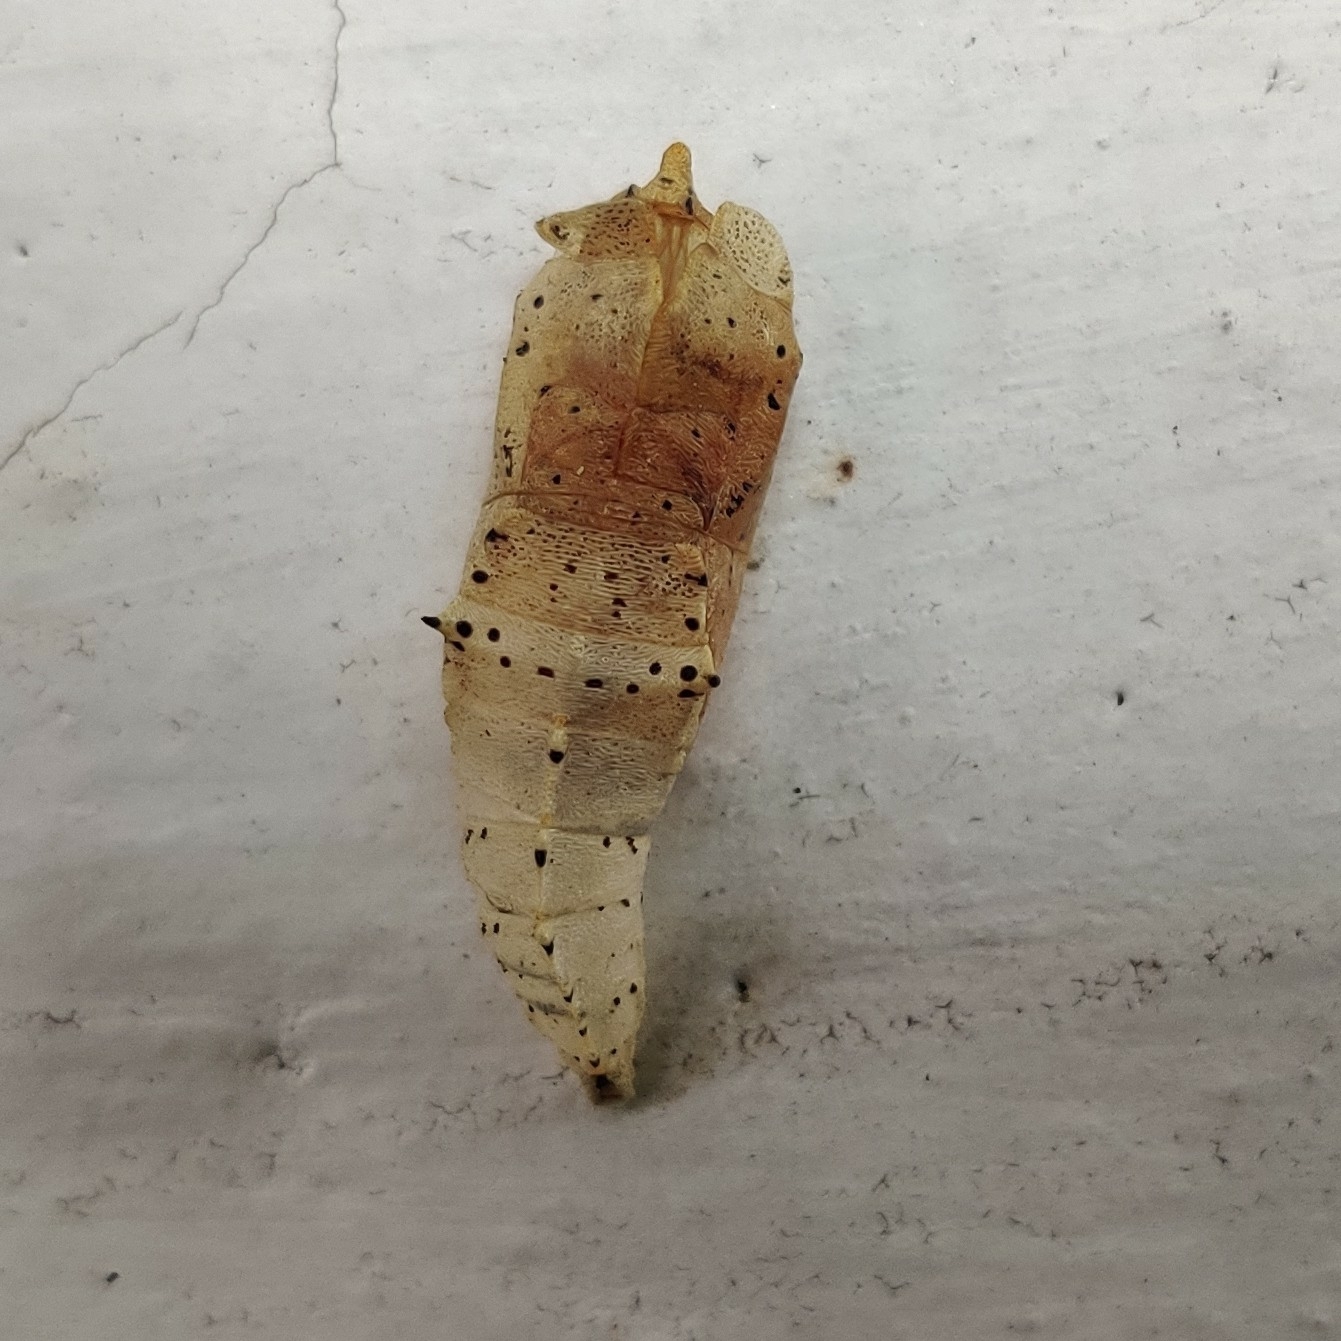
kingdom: Animalia
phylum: Arthropoda
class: Insecta
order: Lepidoptera
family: Pieridae
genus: Pieris
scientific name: Pieris canidia
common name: Indian cabbage white
